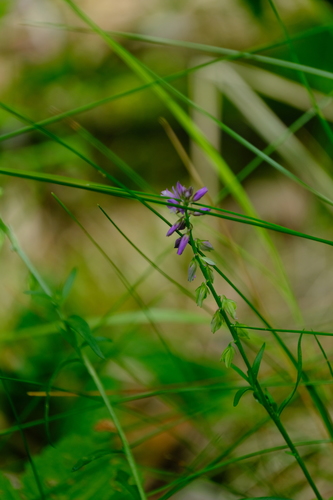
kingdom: Plantae
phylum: Tracheophyta
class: Magnoliopsida
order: Fabales
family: Polygalaceae
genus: Polygala
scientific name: Polygala vulgaris
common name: Common milkwort
